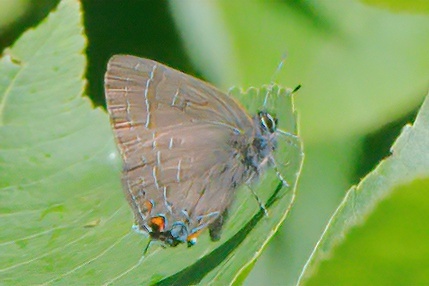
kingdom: Animalia
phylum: Arthropoda
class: Insecta
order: Lepidoptera
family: Lycaenidae
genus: Satyrium
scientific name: Satyrium calanus
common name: Banded hairstreak
